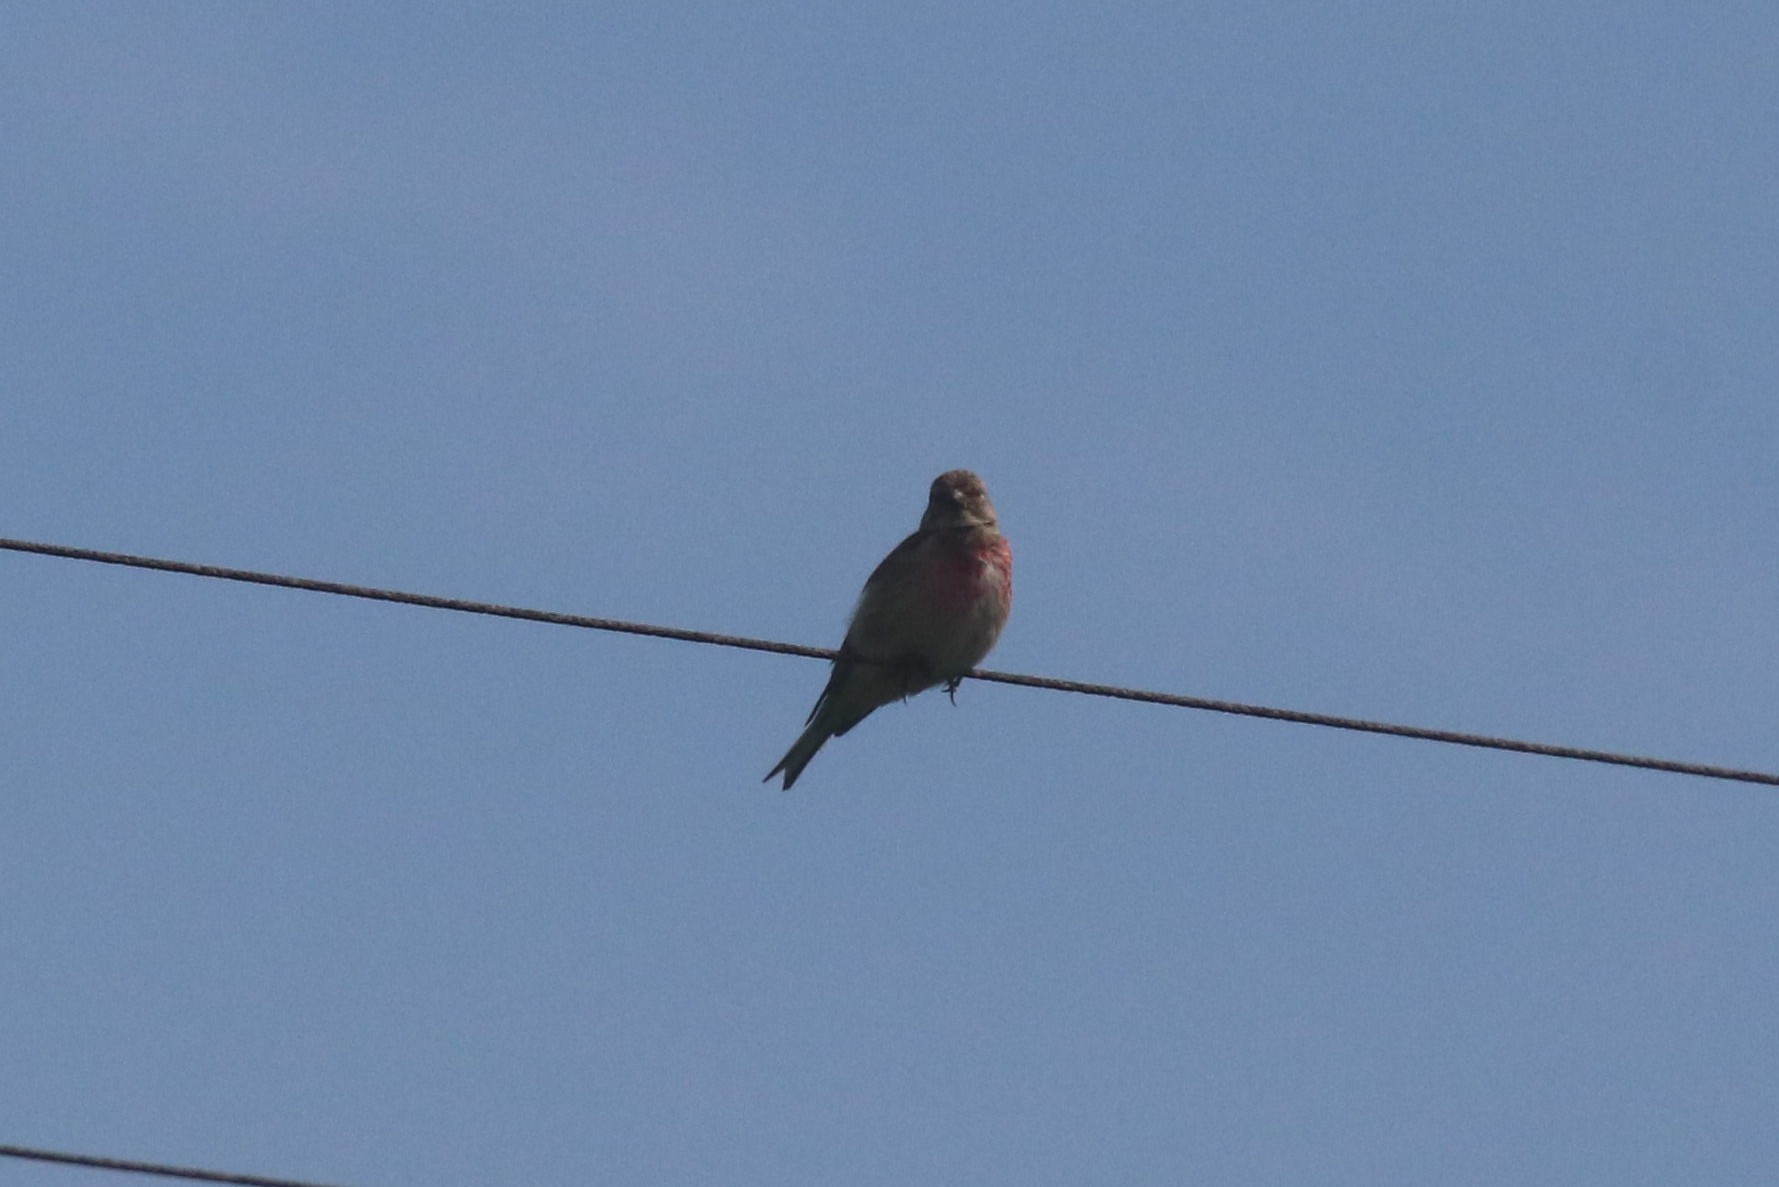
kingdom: Animalia
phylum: Chordata
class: Aves
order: Passeriformes
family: Fringillidae
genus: Linaria
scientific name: Linaria cannabina
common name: Common linnet
